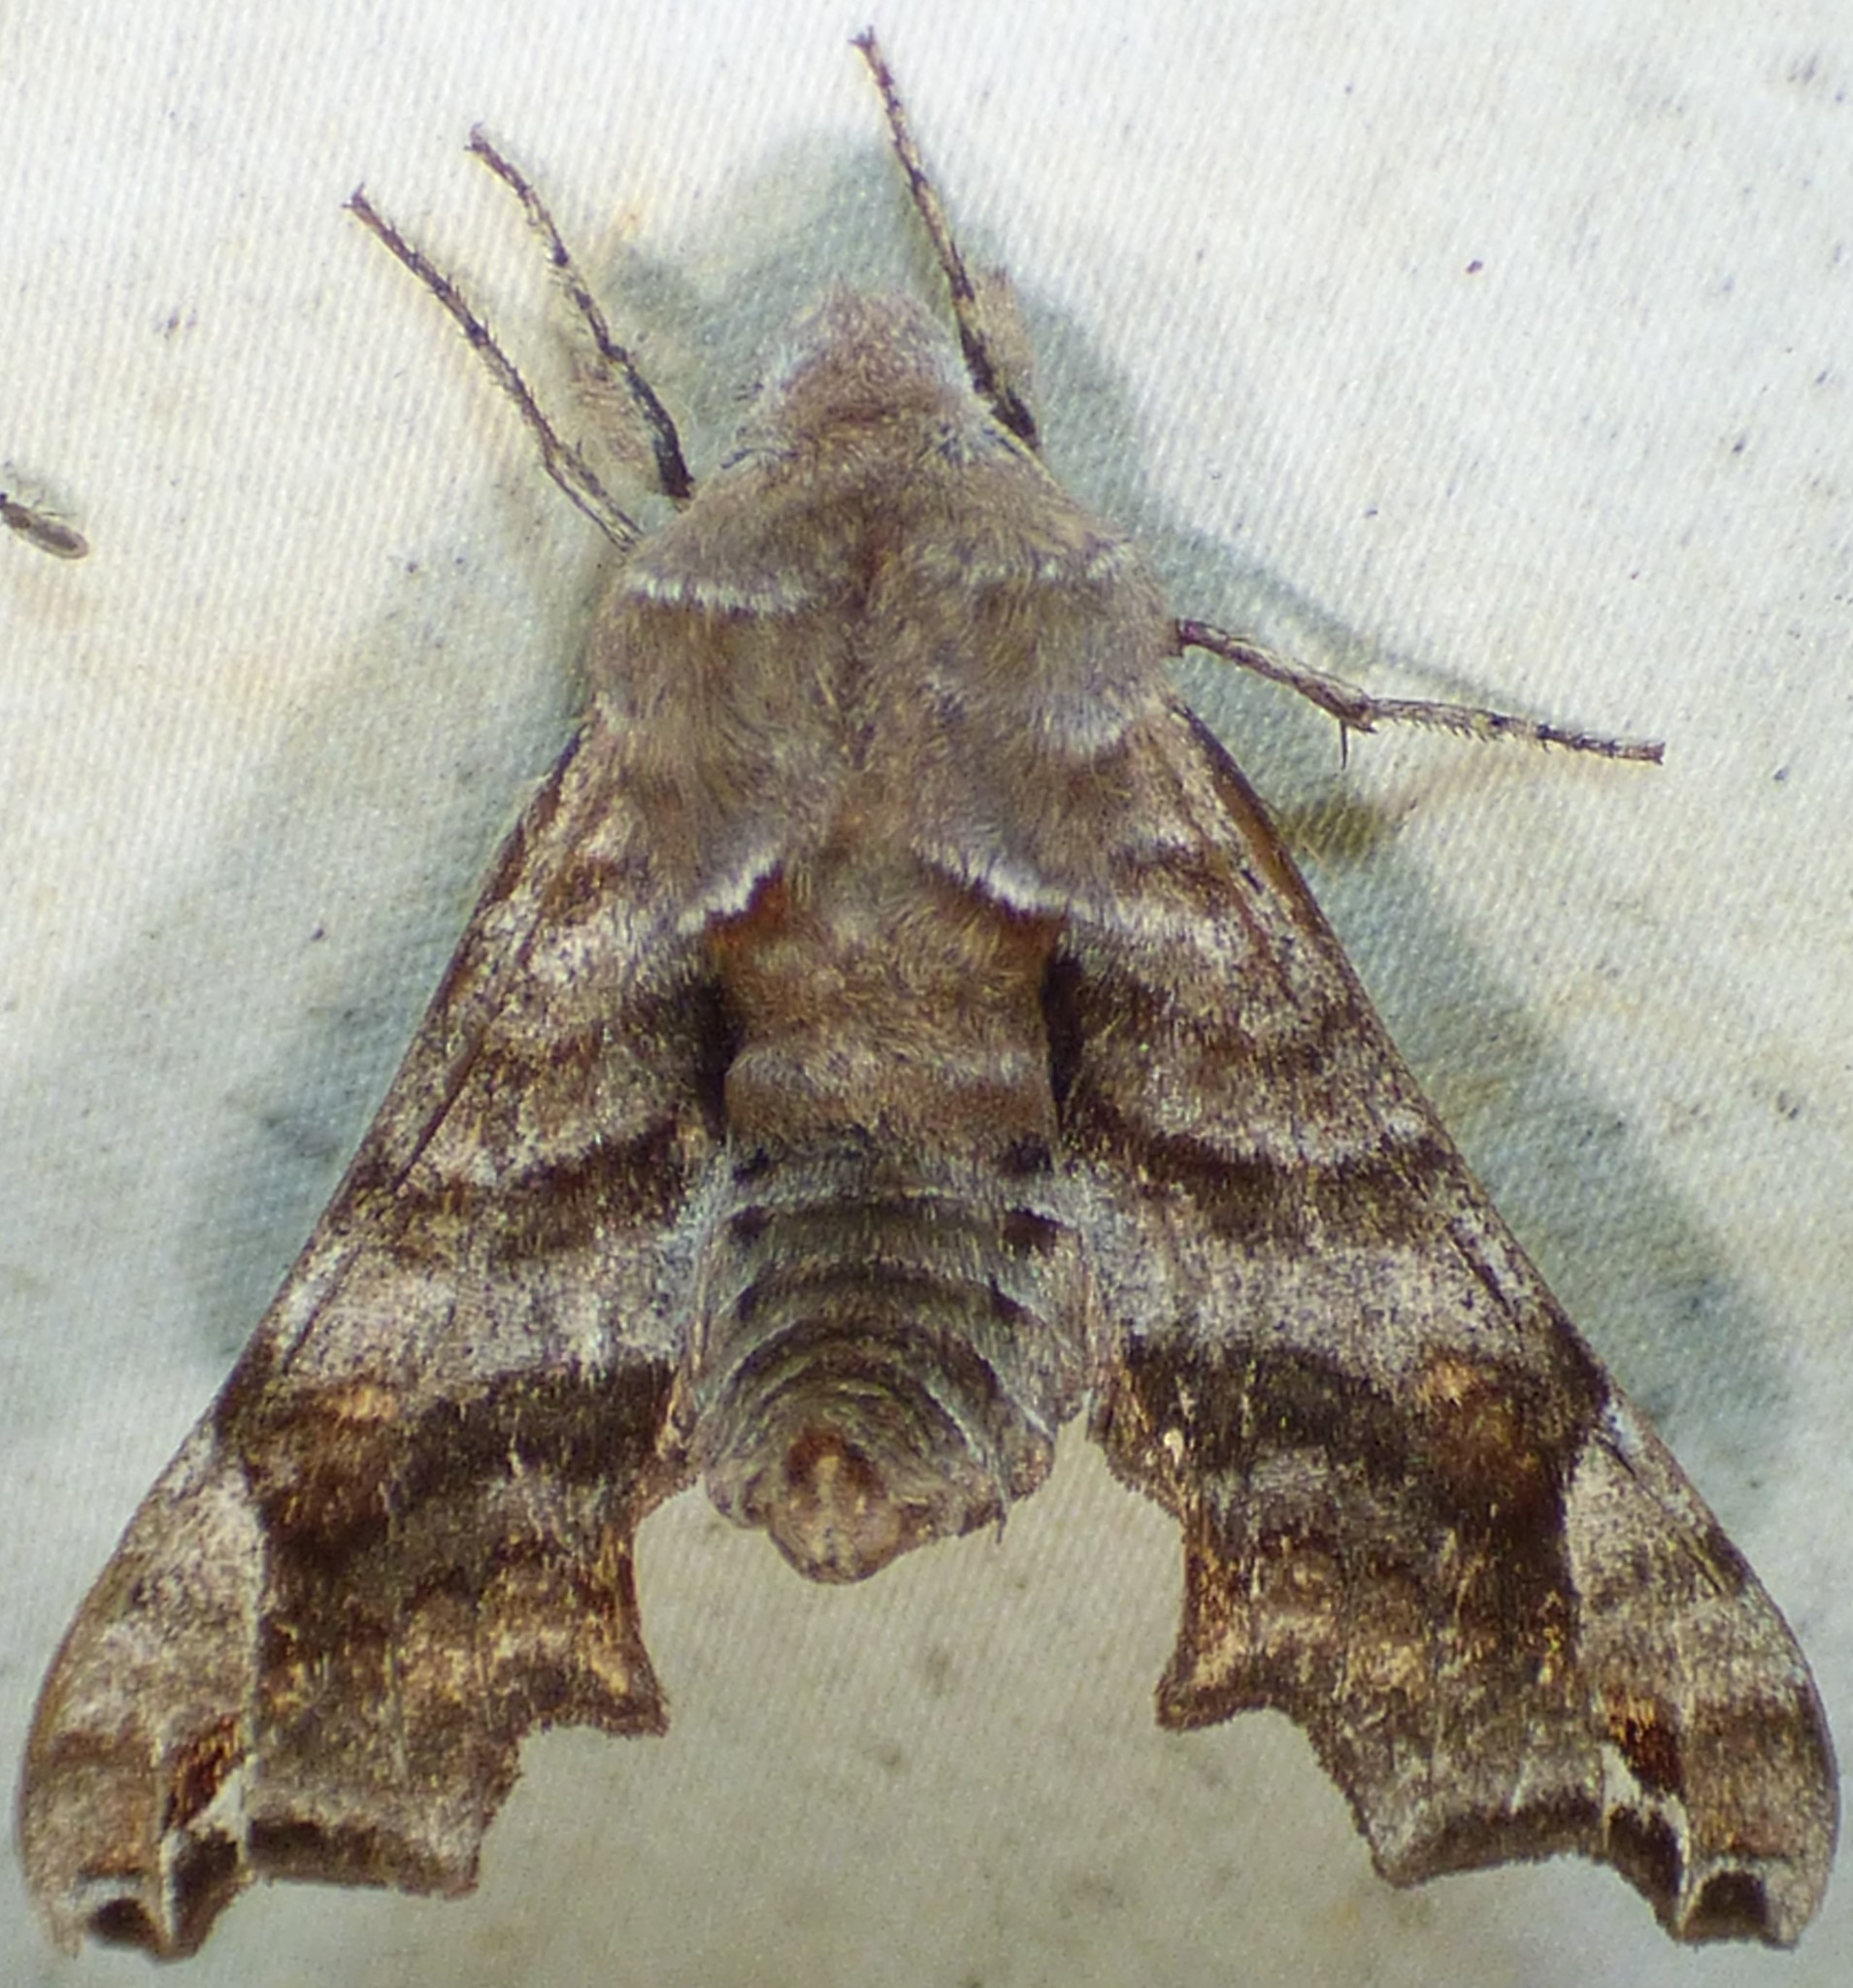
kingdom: Animalia
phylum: Arthropoda
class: Insecta
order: Lepidoptera
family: Sphingidae
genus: Deidamia
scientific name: Deidamia inscriptum
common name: Lettered sphinx
